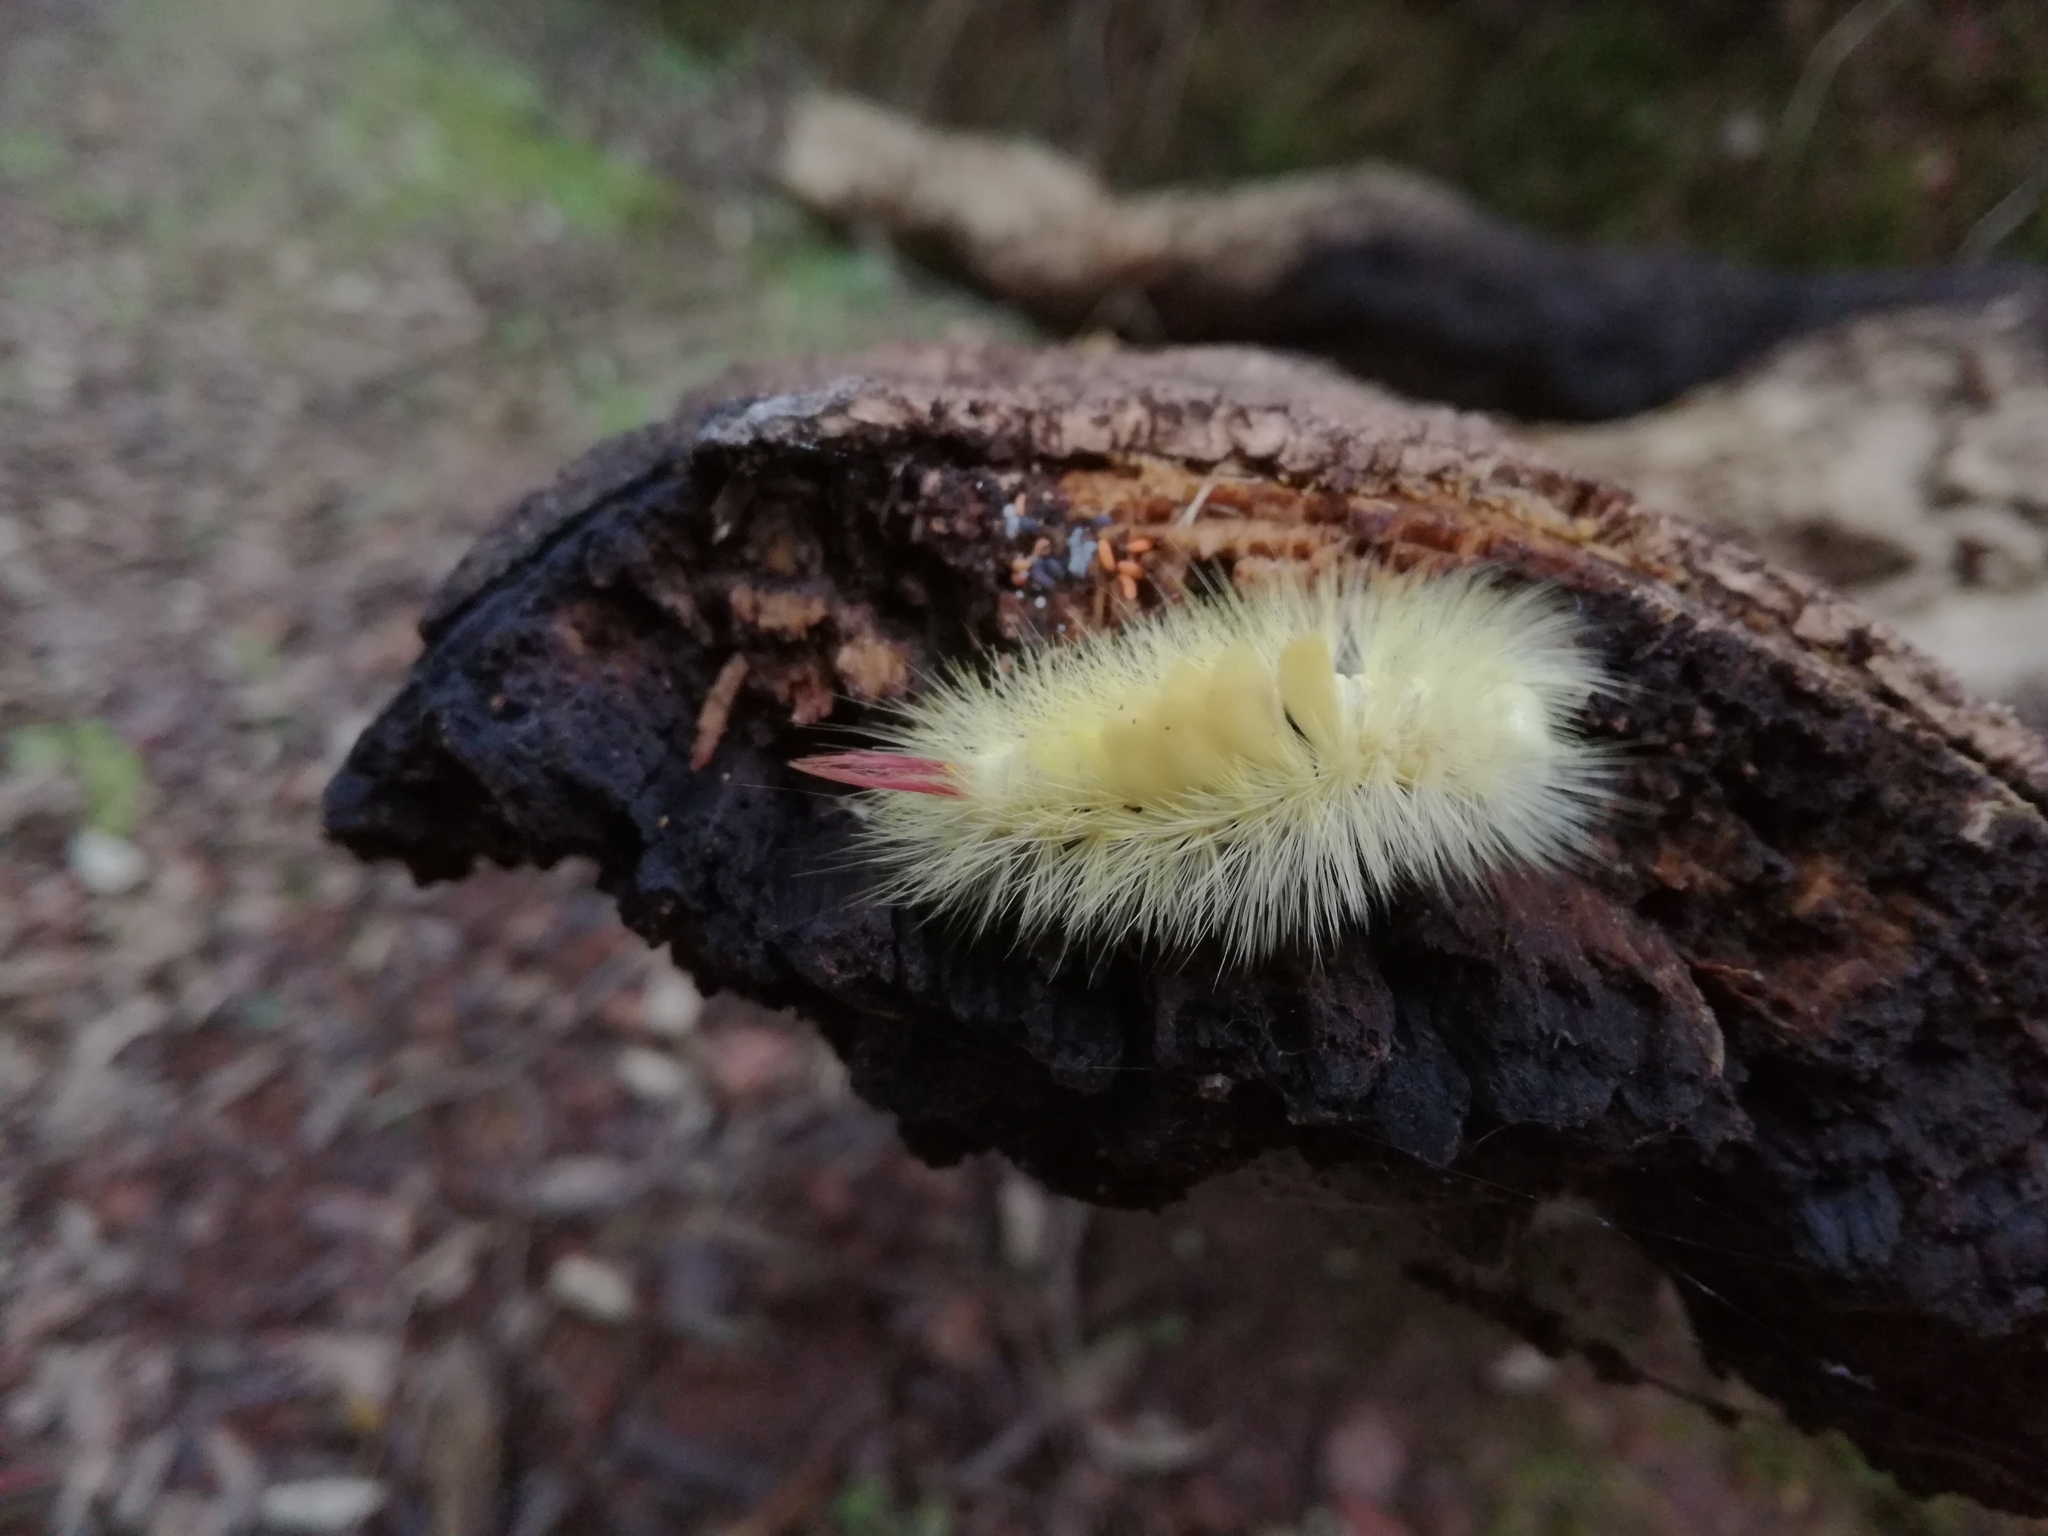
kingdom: Animalia
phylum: Arthropoda
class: Insecta
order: Lepidoptera
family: Erebidae
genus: Calliteara
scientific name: Calliteara pudibunda
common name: Pale tussock
